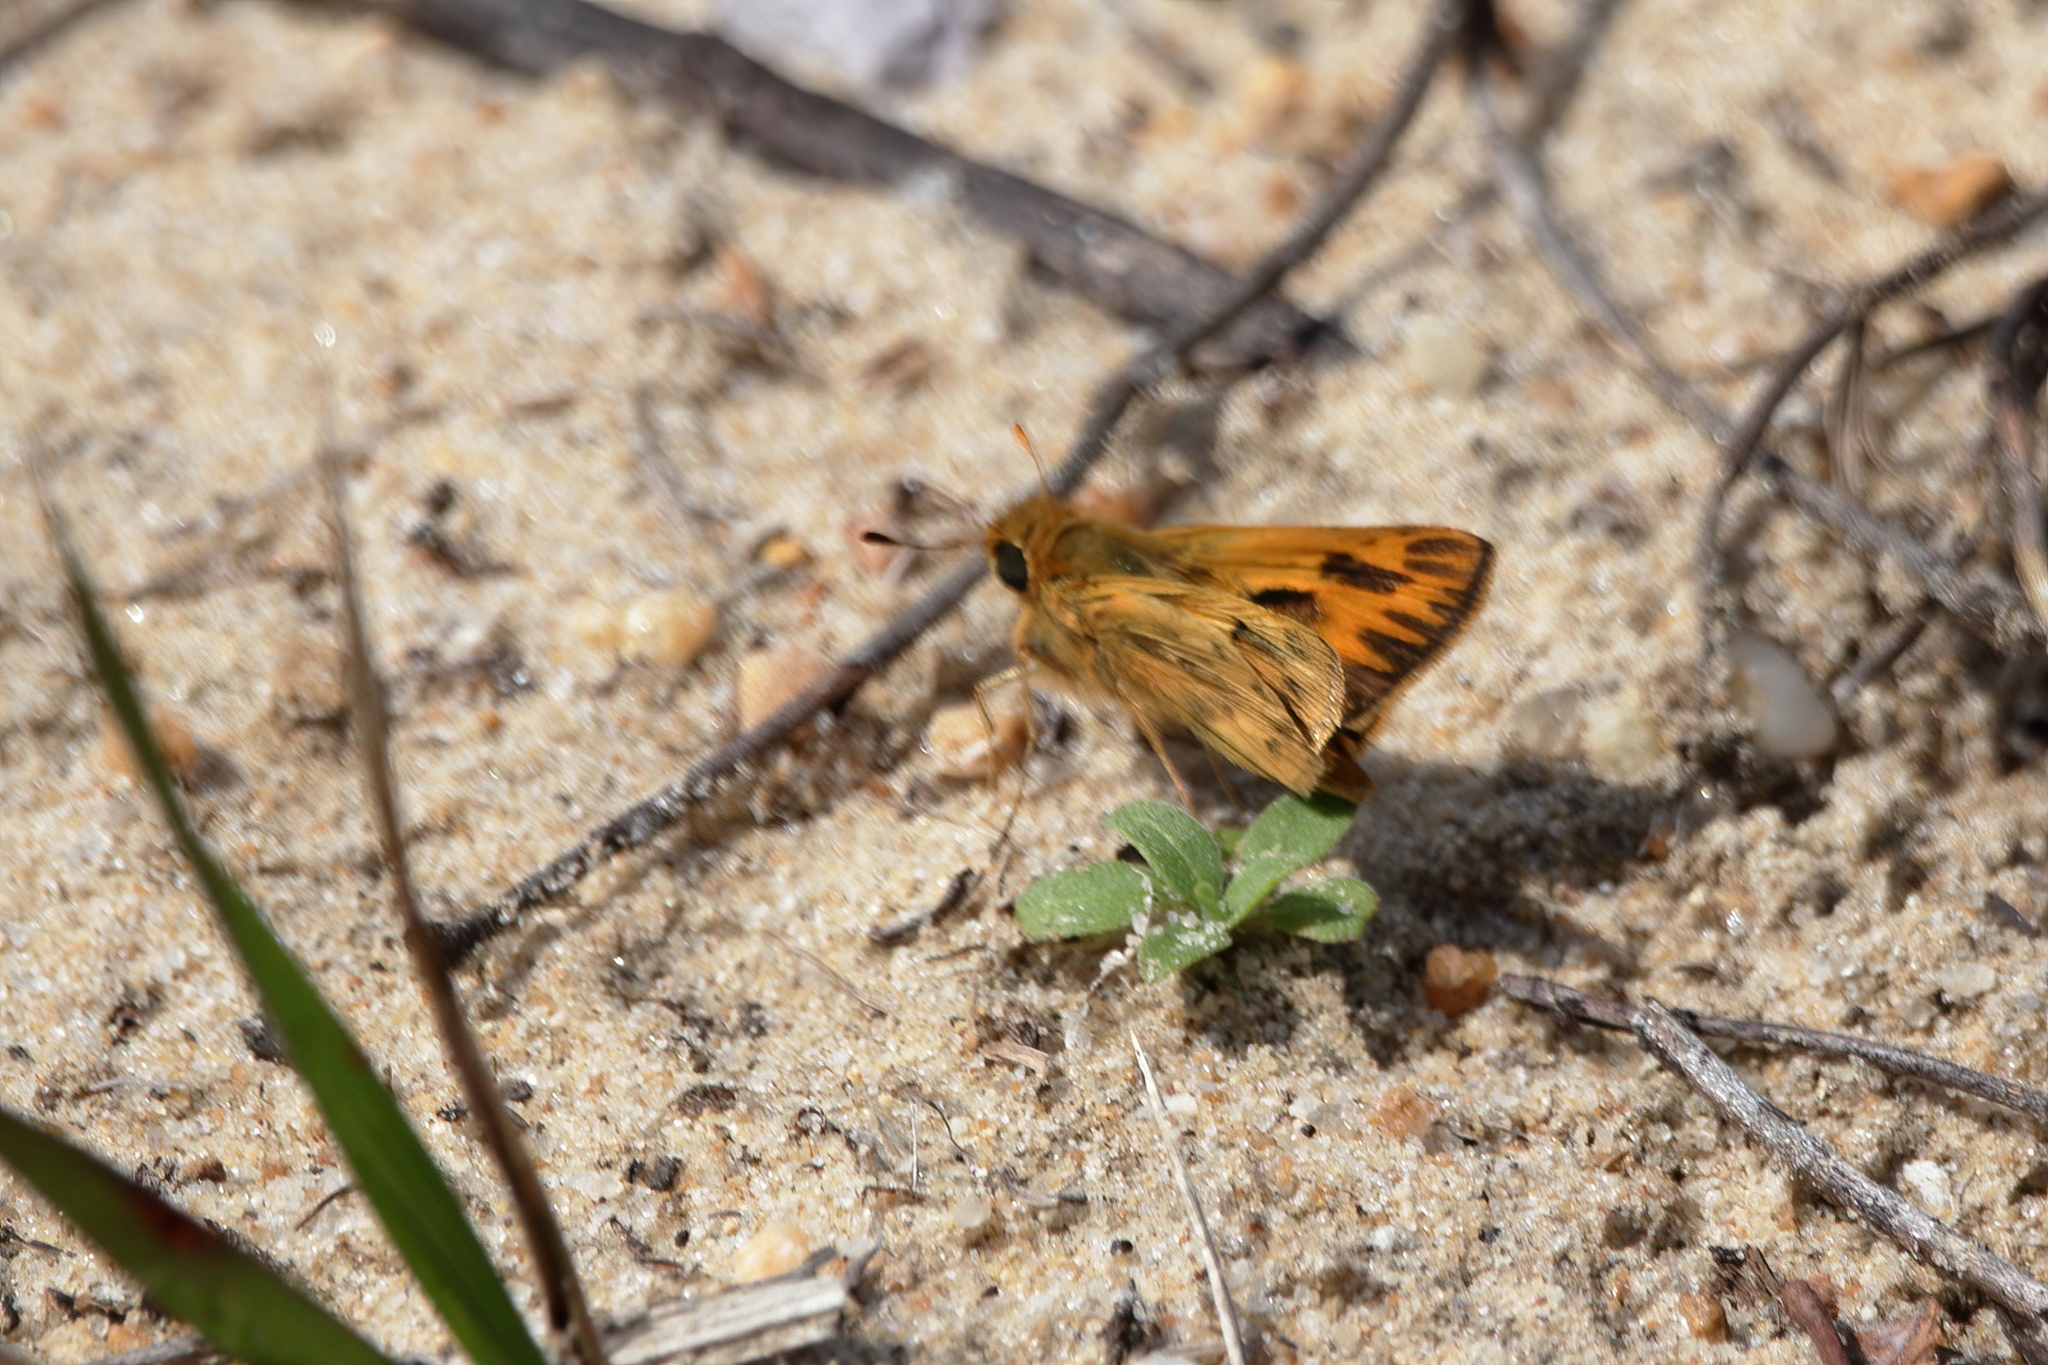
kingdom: Animalia
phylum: Arthropoda
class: Insecta
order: Lepidoptera
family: Hesperiidae
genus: Hylephila
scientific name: Hylephila phyleus
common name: Fiery skipper
